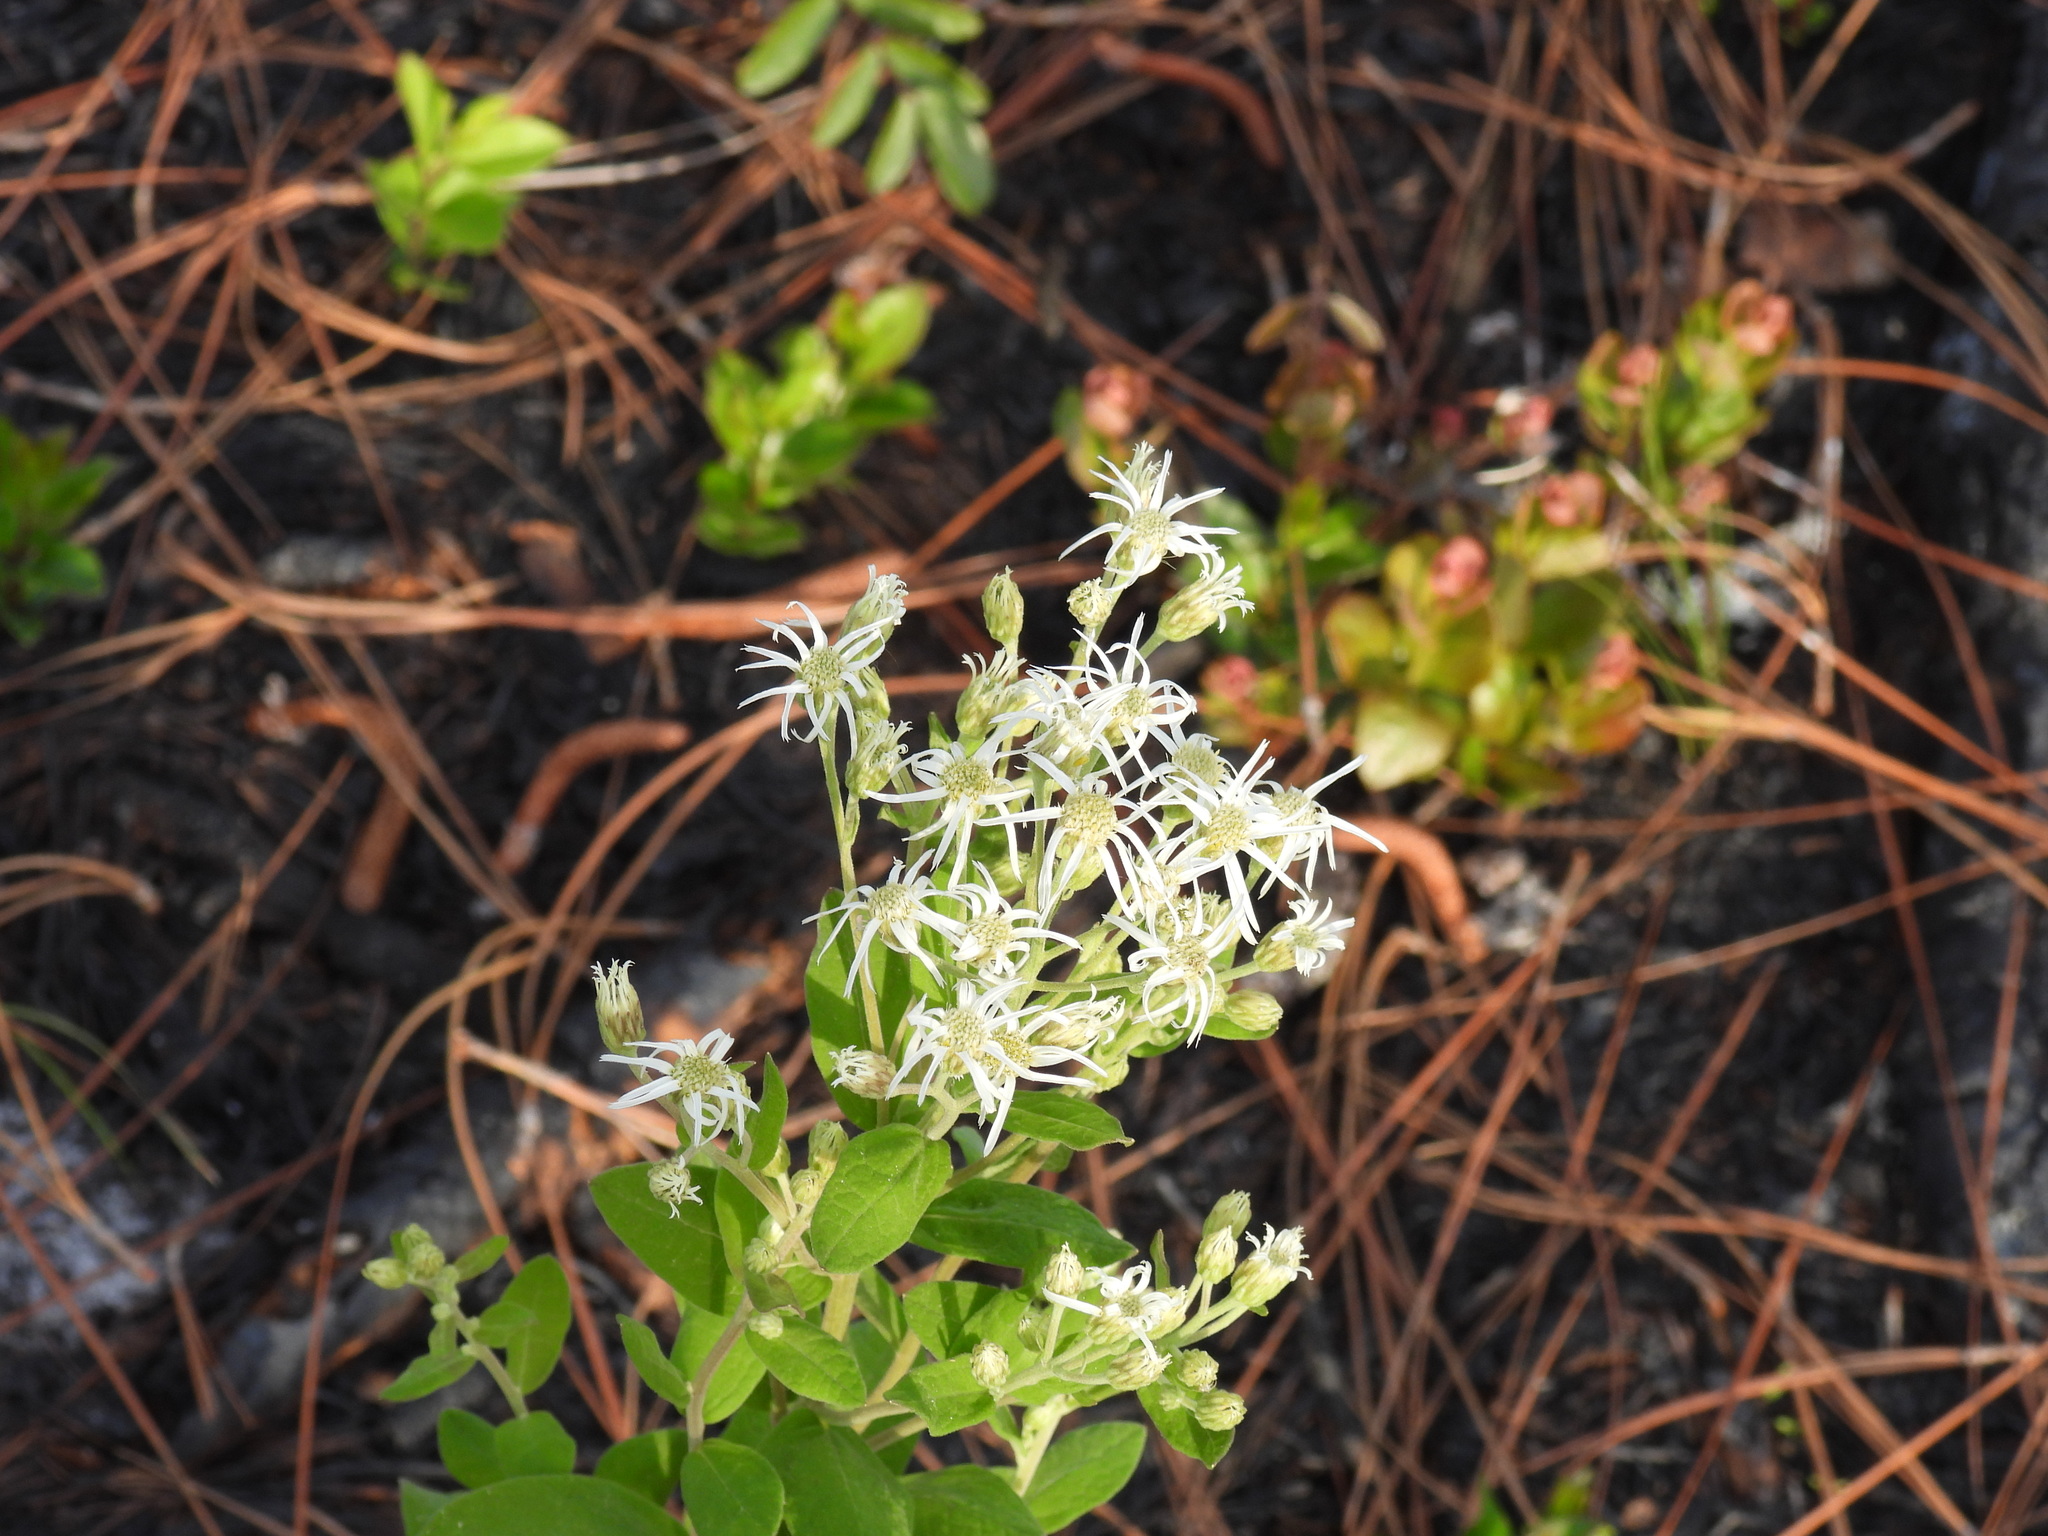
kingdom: Plantae
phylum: Tracheophyta
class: Magnoliopsida
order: Asterales
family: Asteraceae
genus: Oclemena
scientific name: Oclemena reticulata
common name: Pinebarren aster
